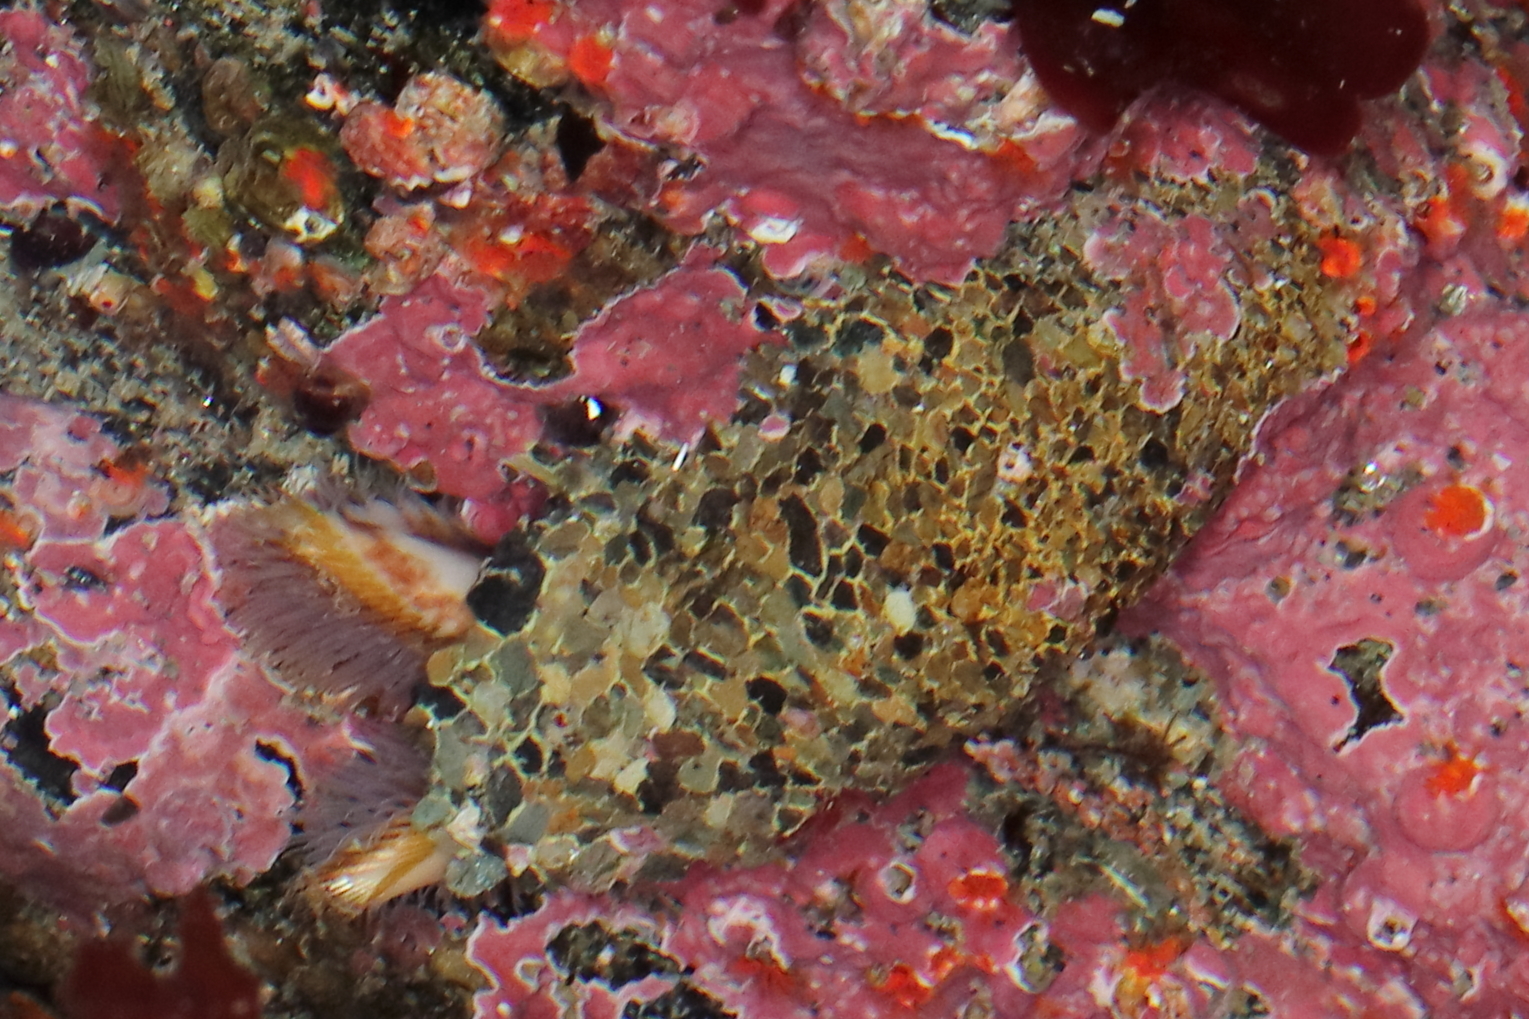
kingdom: Animalia
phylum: Annelida
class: Polychaeta
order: Sabellida
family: Sabellariidae
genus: Idanthyrsus
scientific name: Idanthyrsus saxicavus
